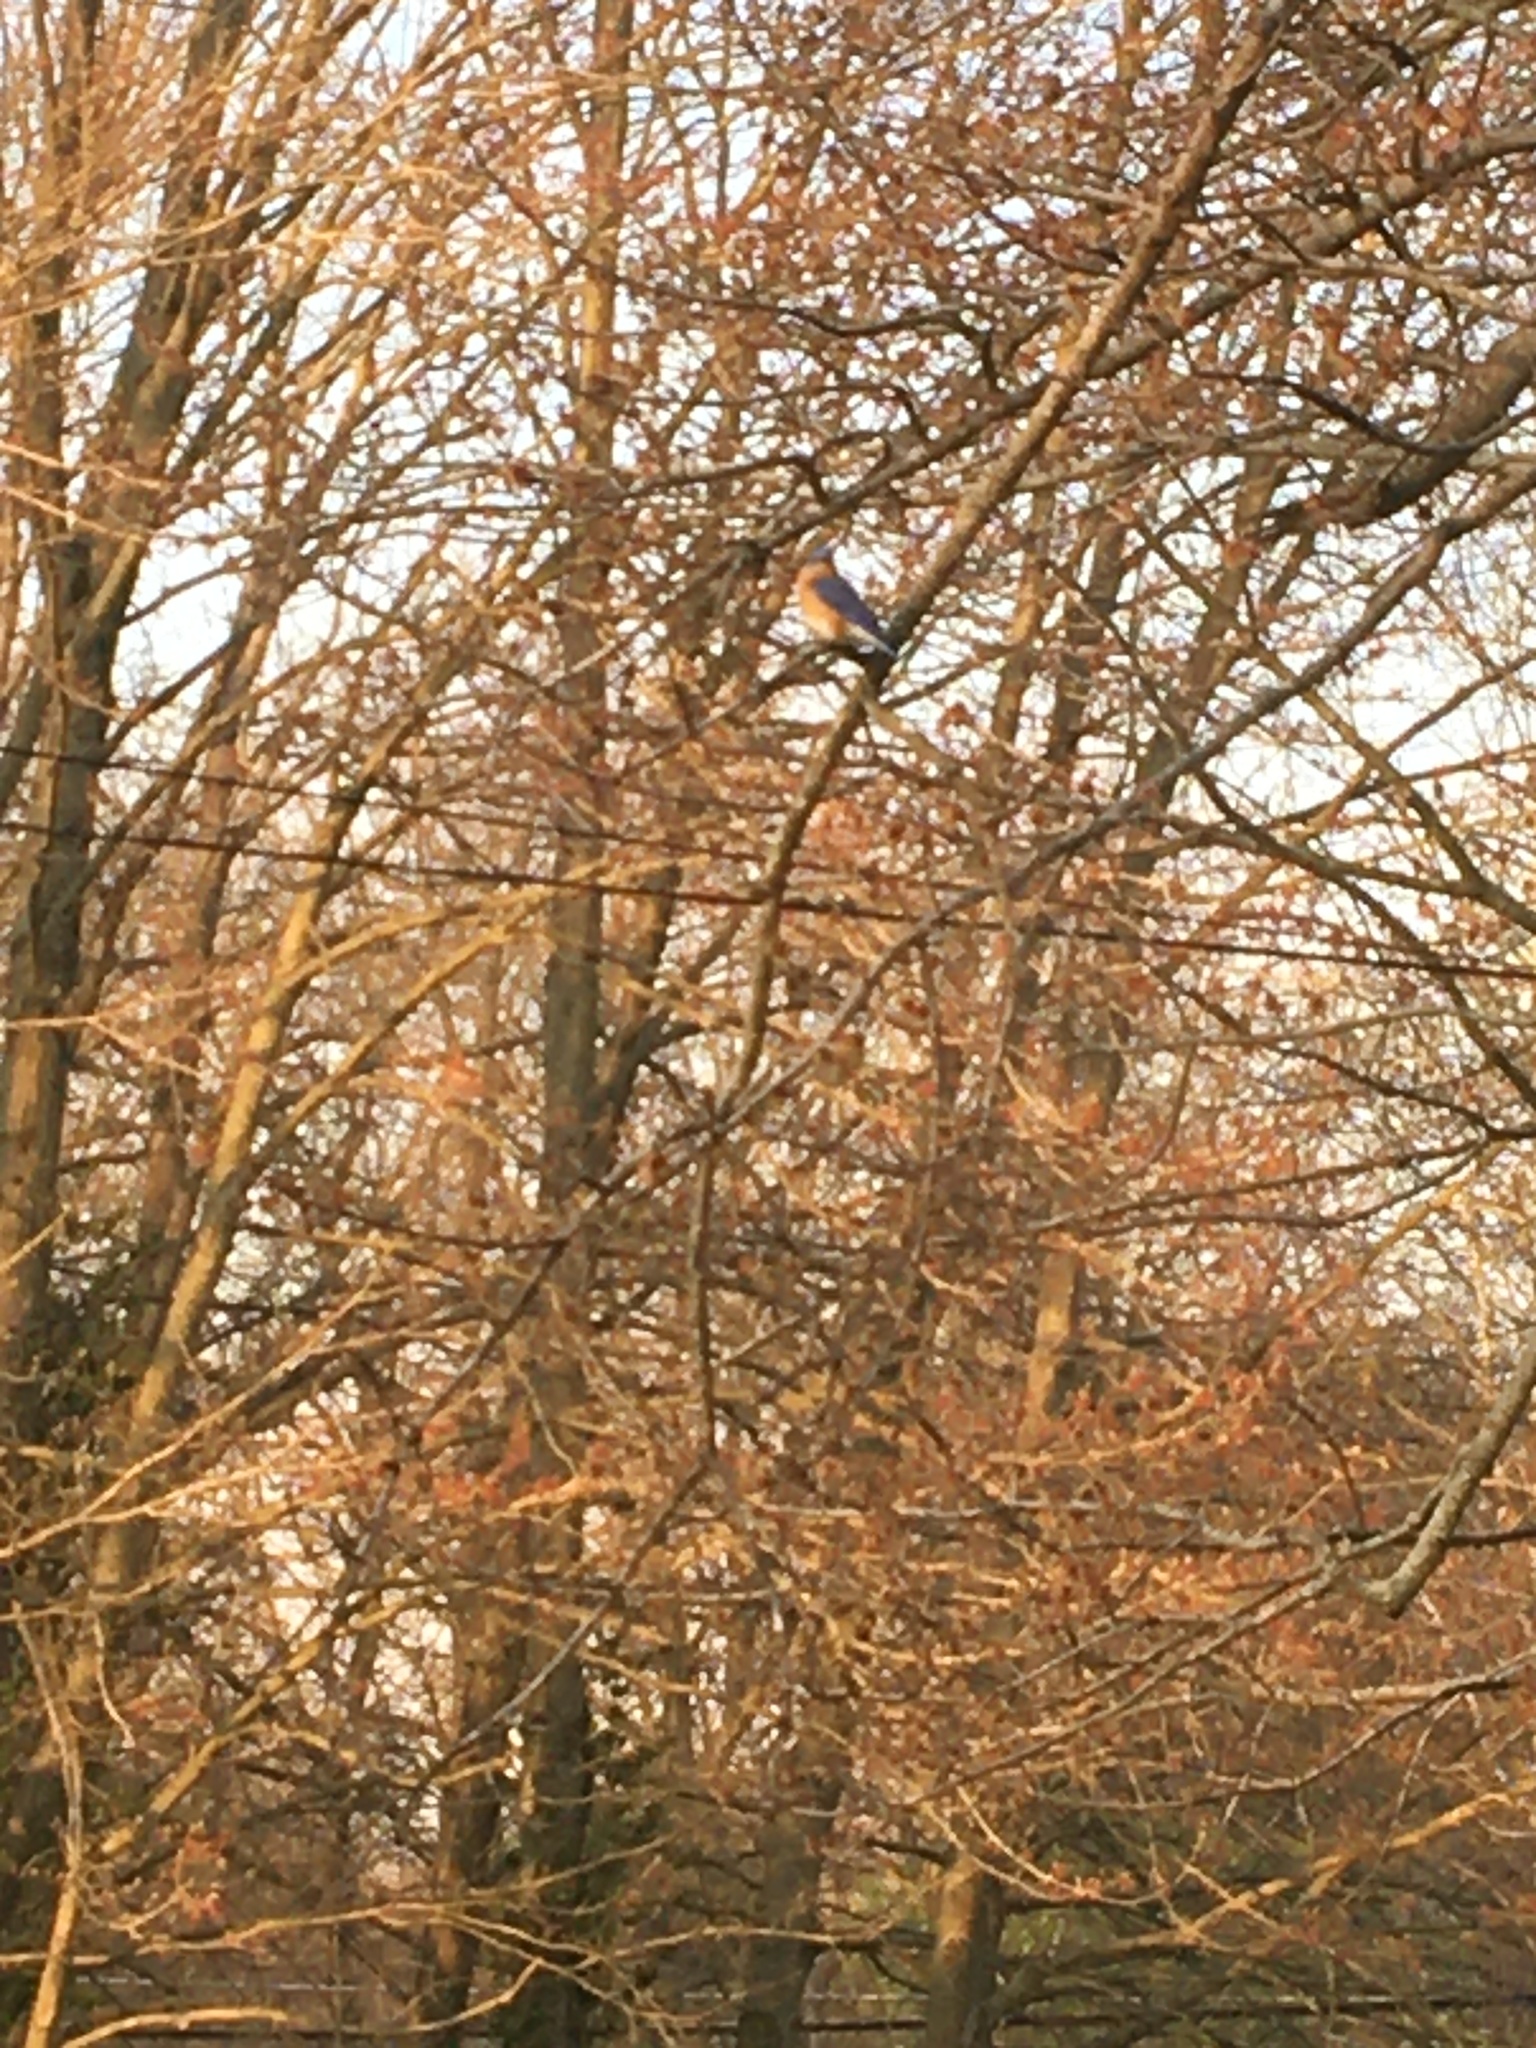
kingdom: Animalia
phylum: Chordata
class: Aves
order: Passeriformes
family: Turdidae
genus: Sialia
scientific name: Sialia sialis
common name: Eastern bluebird
